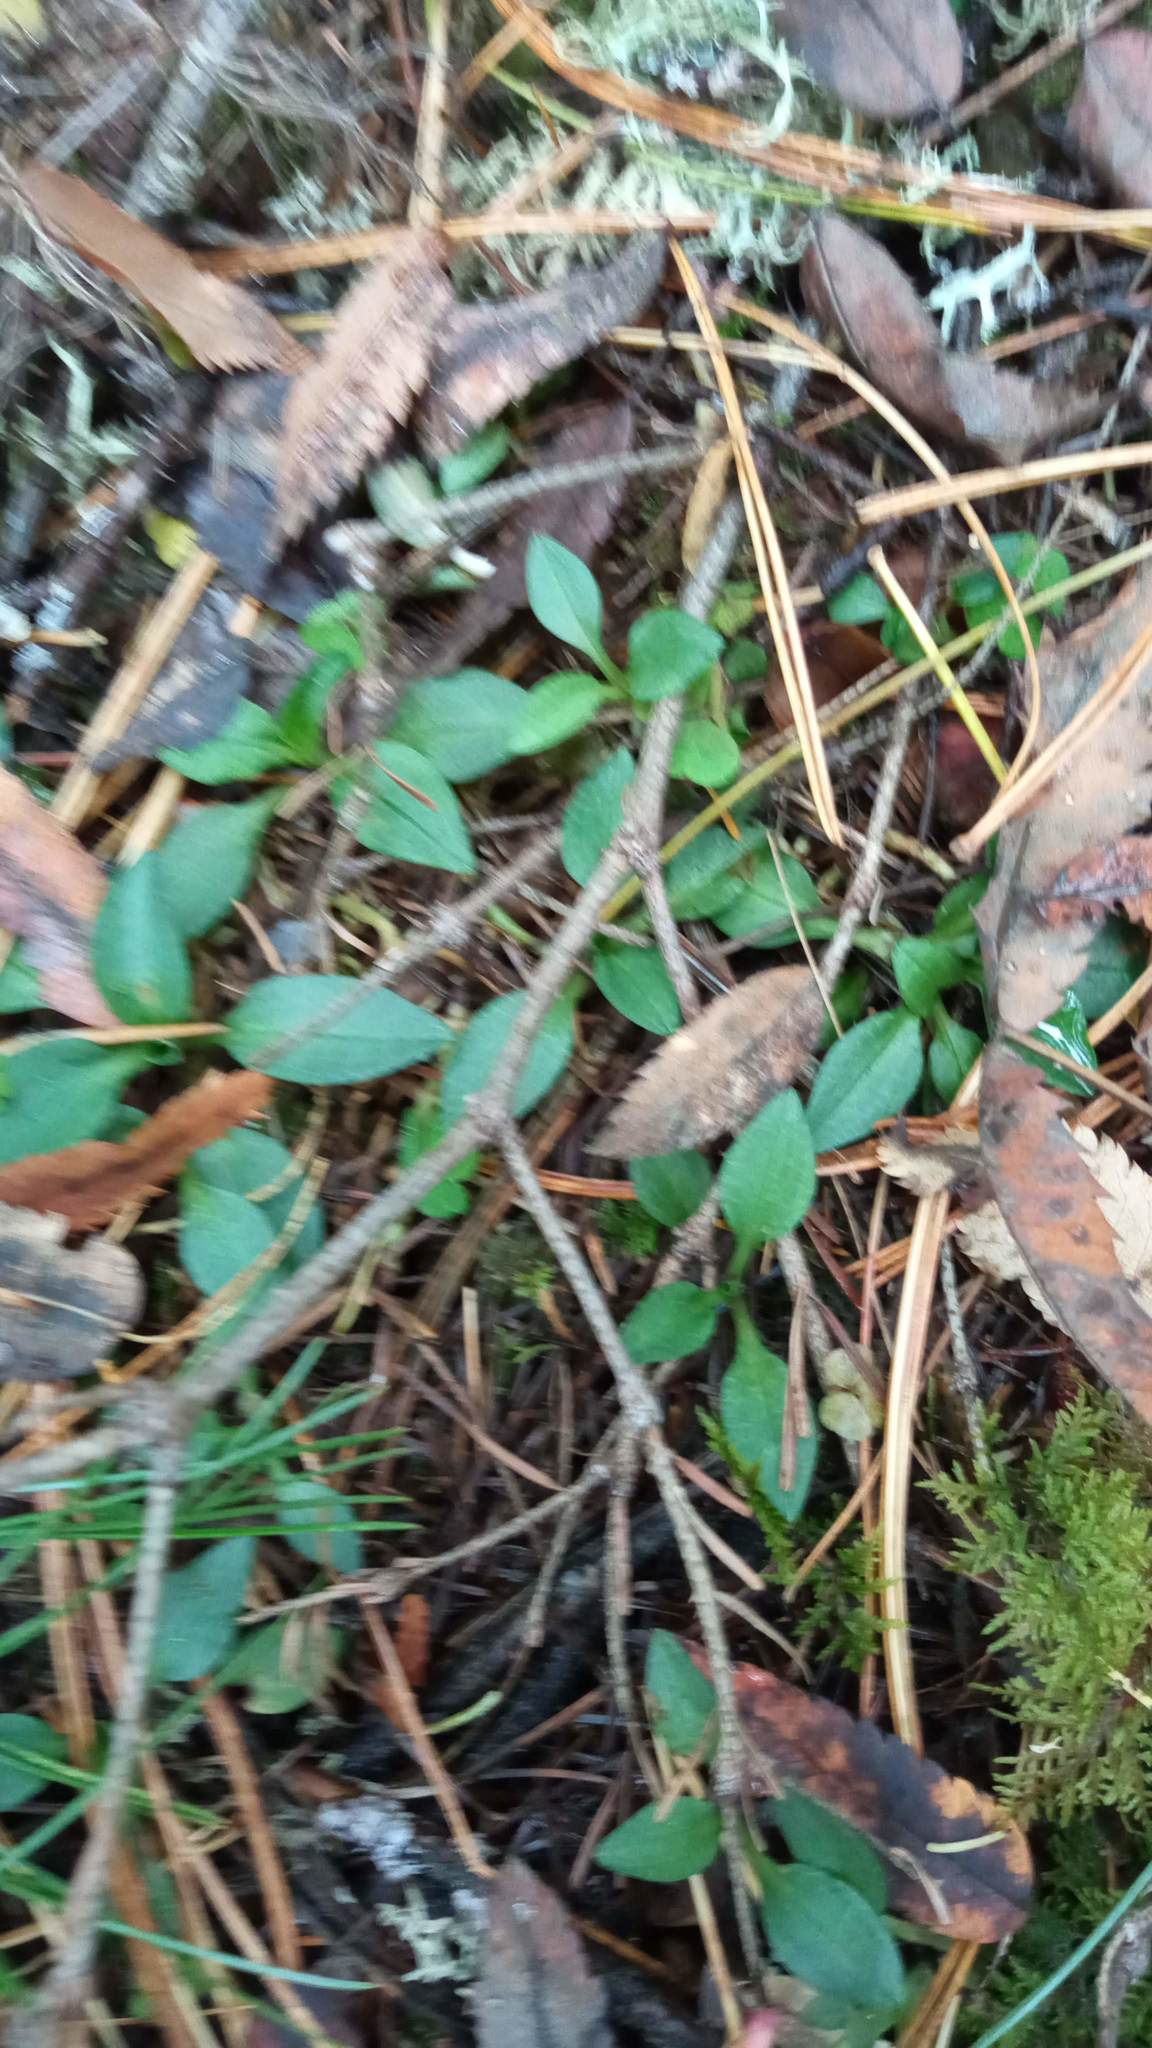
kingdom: Plantae
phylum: Tracheophyta
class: Liliopsida
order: Asparagales
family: Orchidaceae
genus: Goodyera
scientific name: Goodyera repens
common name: Creeping lady's-tresses
